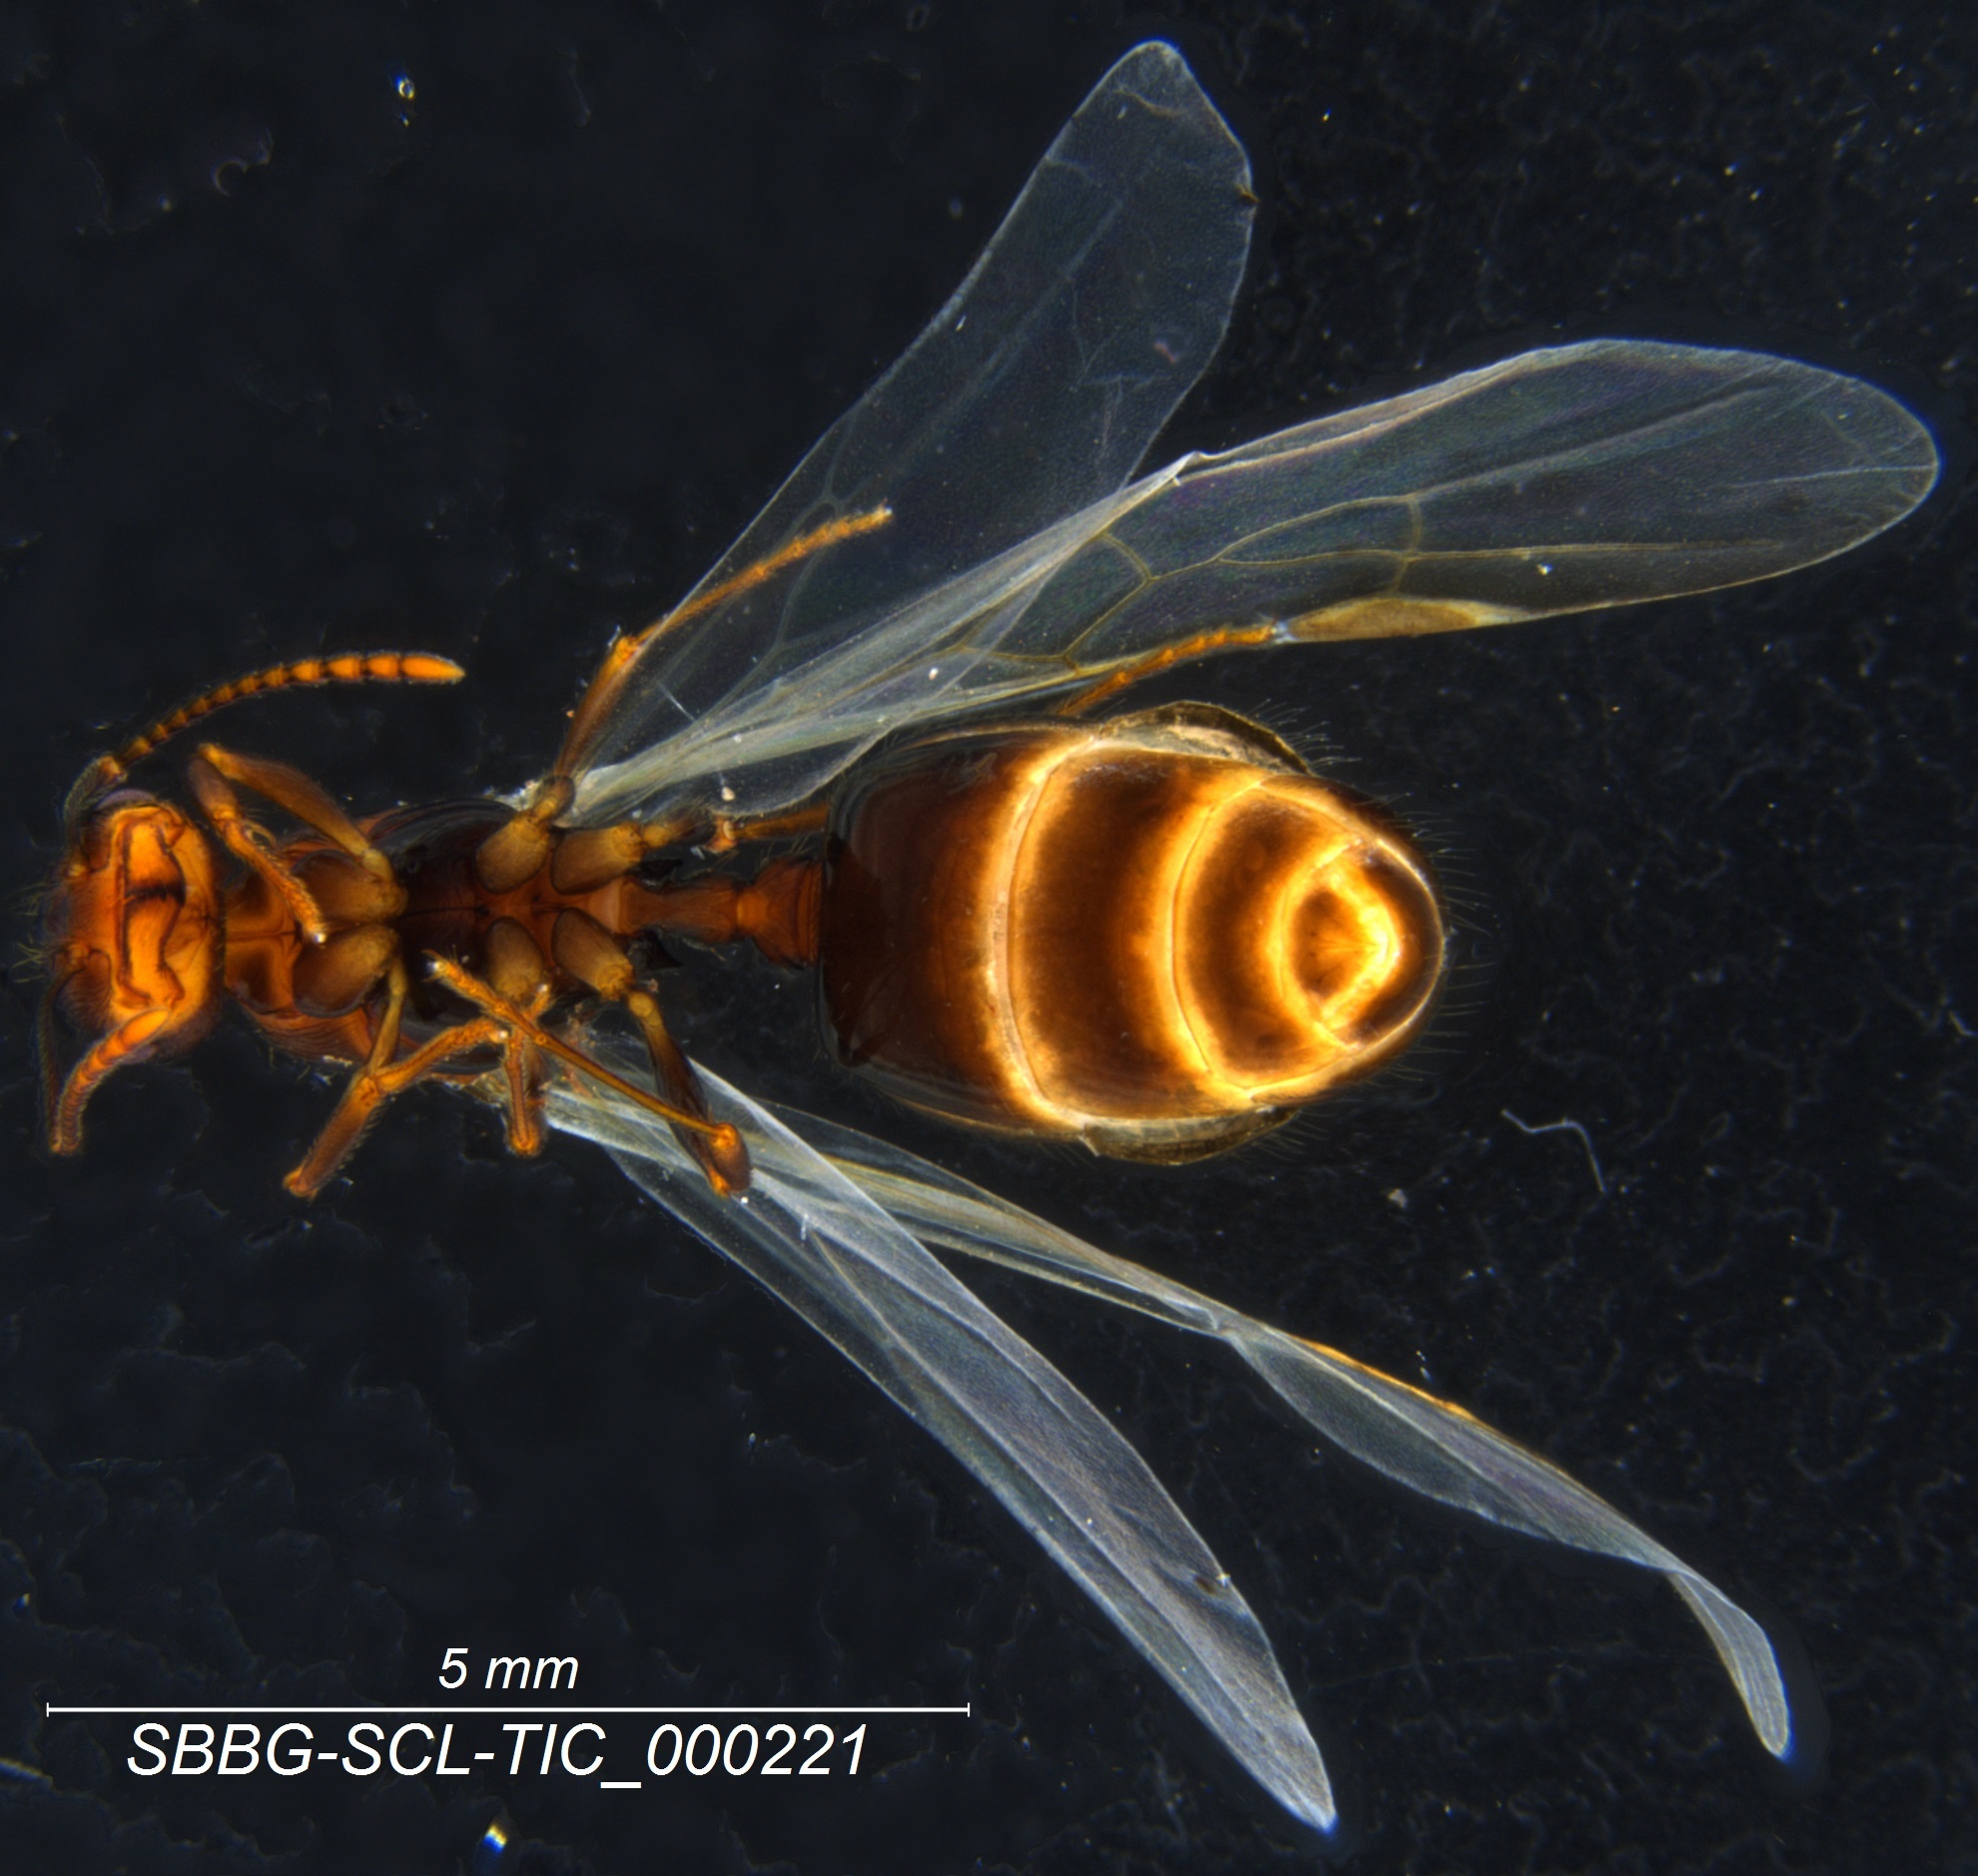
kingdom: Animalia
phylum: Arthropoda
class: Insecta
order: Hymenoptera
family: Formicidae
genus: Aphaenogaster
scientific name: Aphaenogaster patruelis
